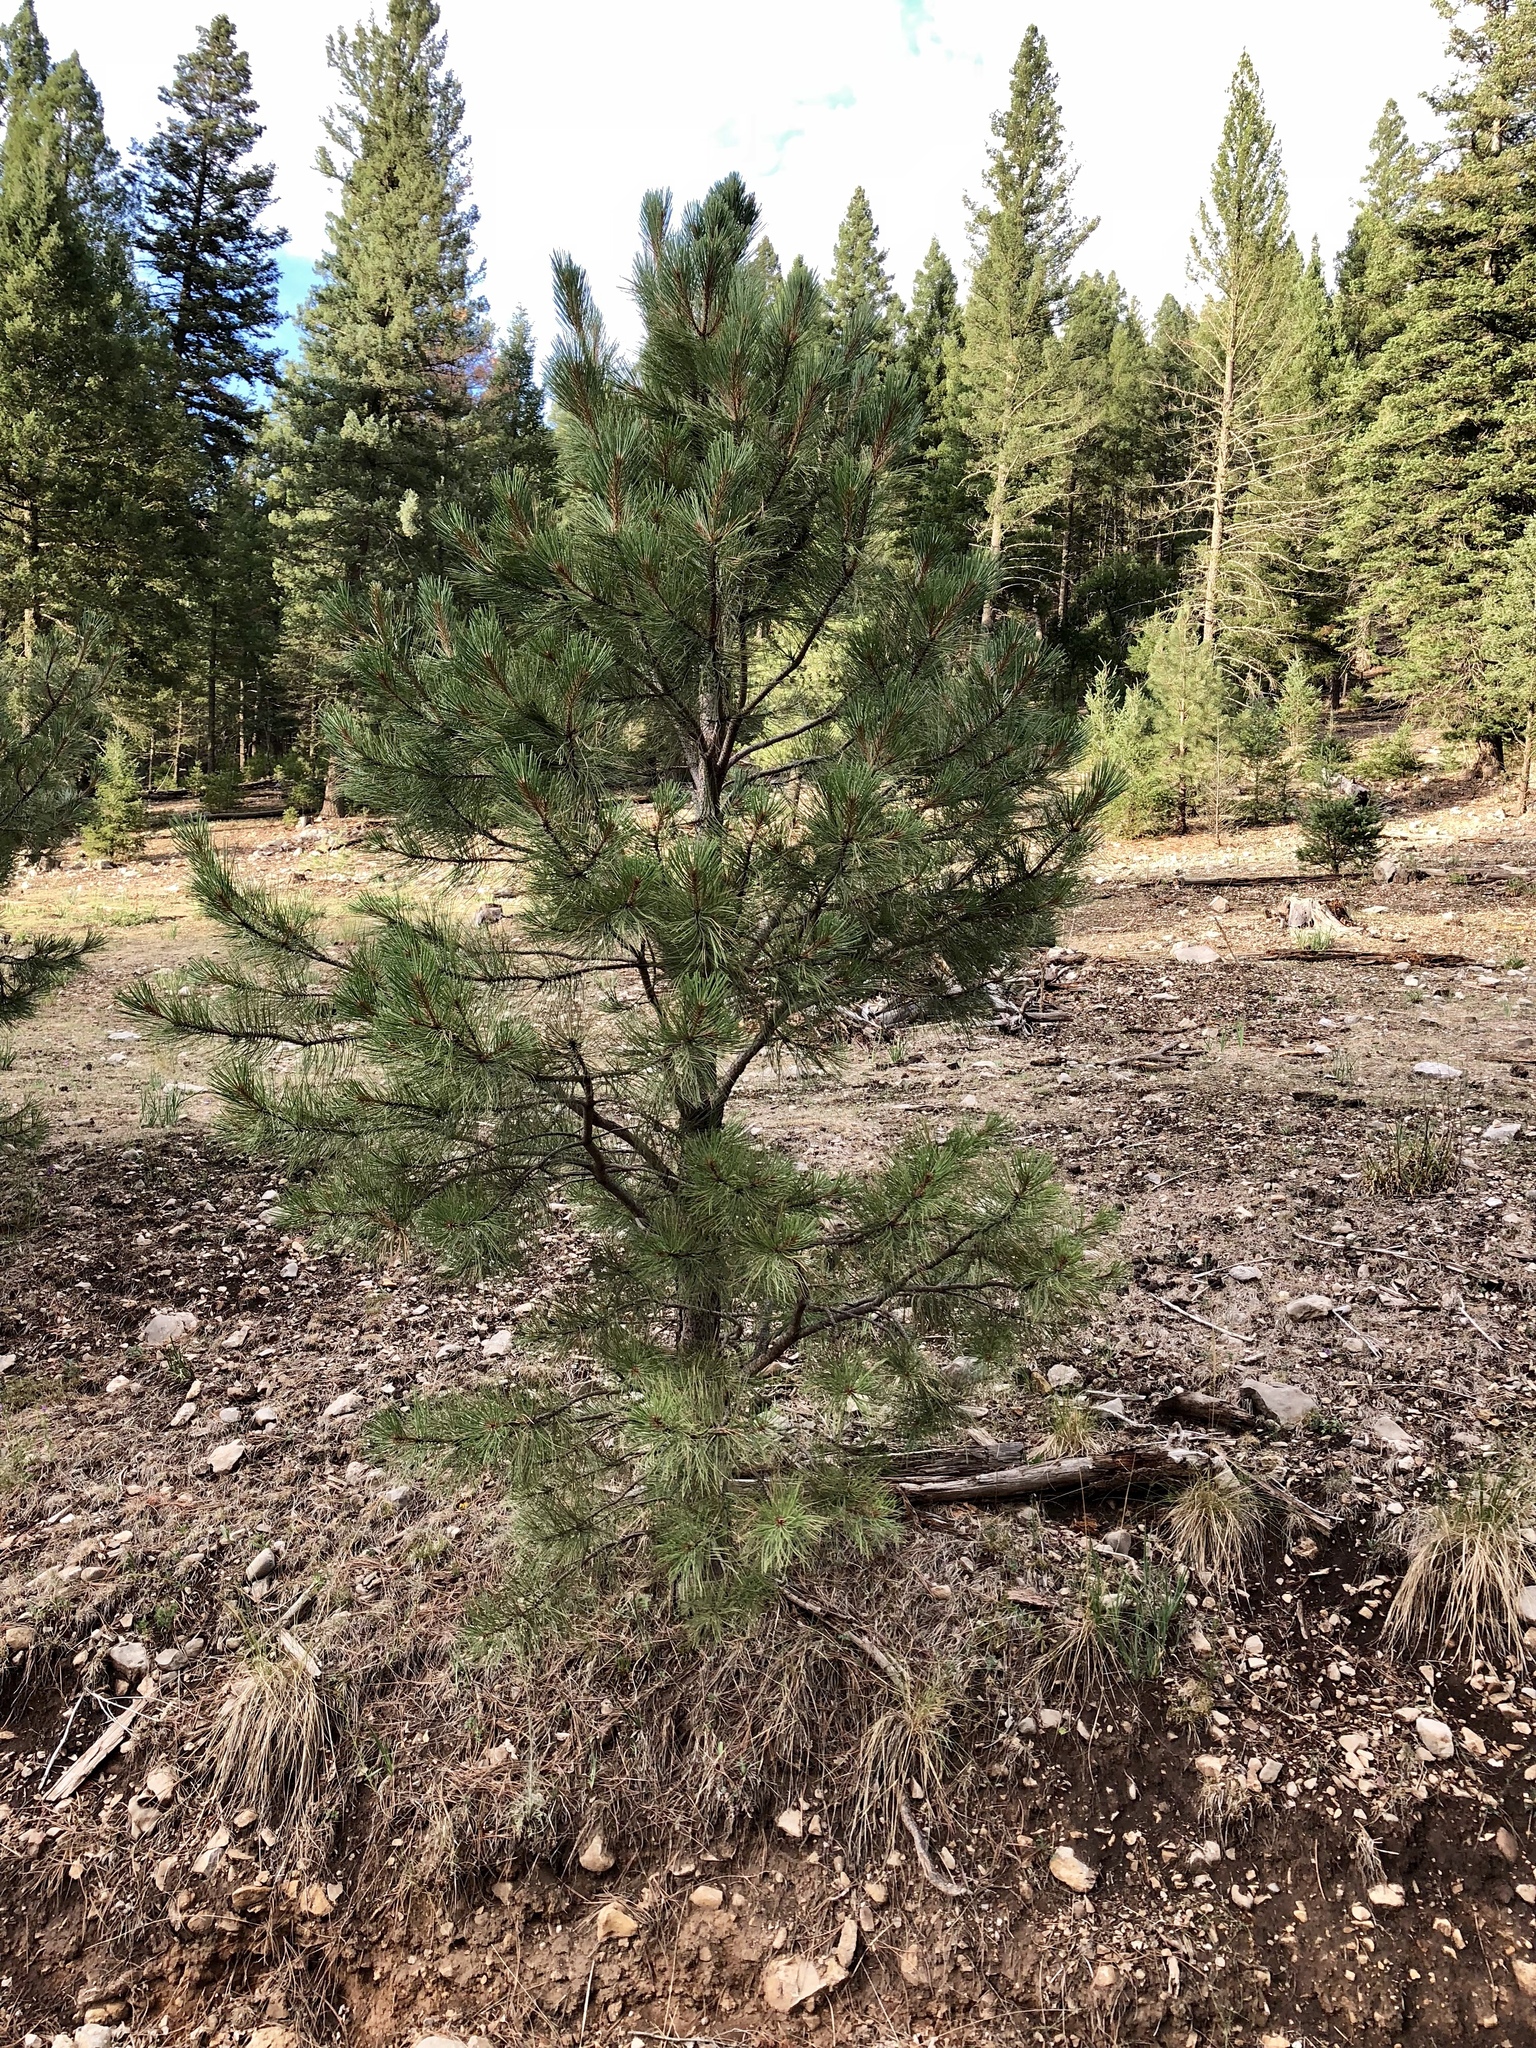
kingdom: Plantae
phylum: Tracheophyta
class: Pinopsida
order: Pinales
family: Pinaceae
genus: Pinus
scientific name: Pinus strobiformis
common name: Southwestern white pine
